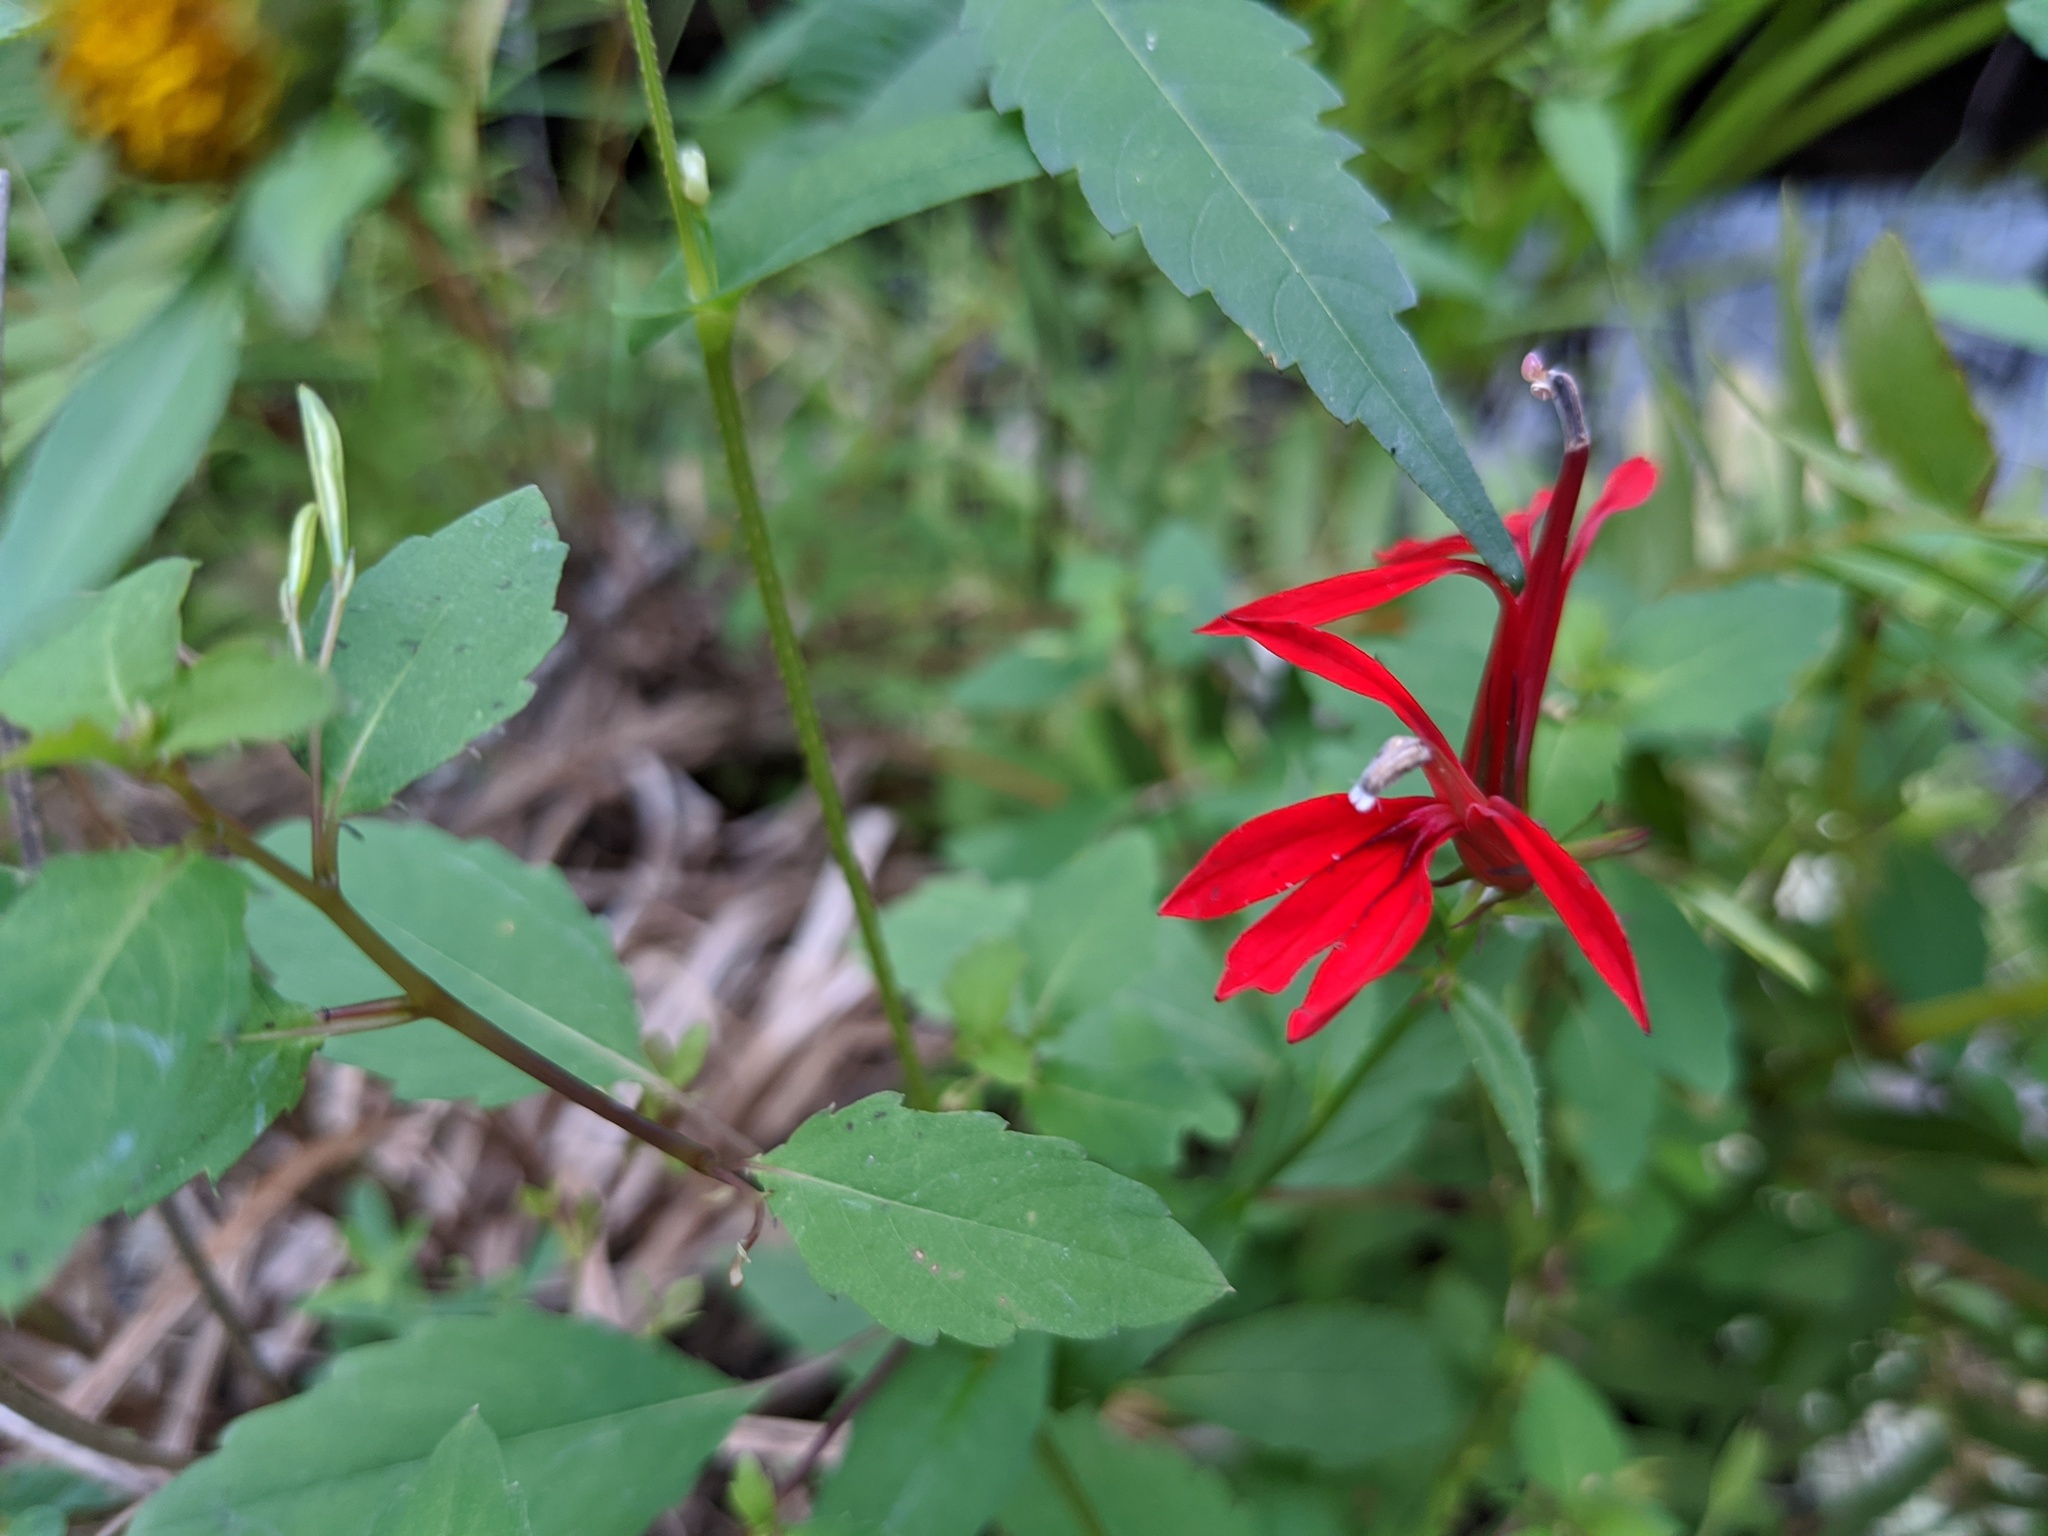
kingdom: Plantae
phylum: Tracheophyta
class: Magnoliopsida
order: Asterales
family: Campanulaceae
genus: Lobelia
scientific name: Lobelia cardinalis
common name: Cardinal flower
